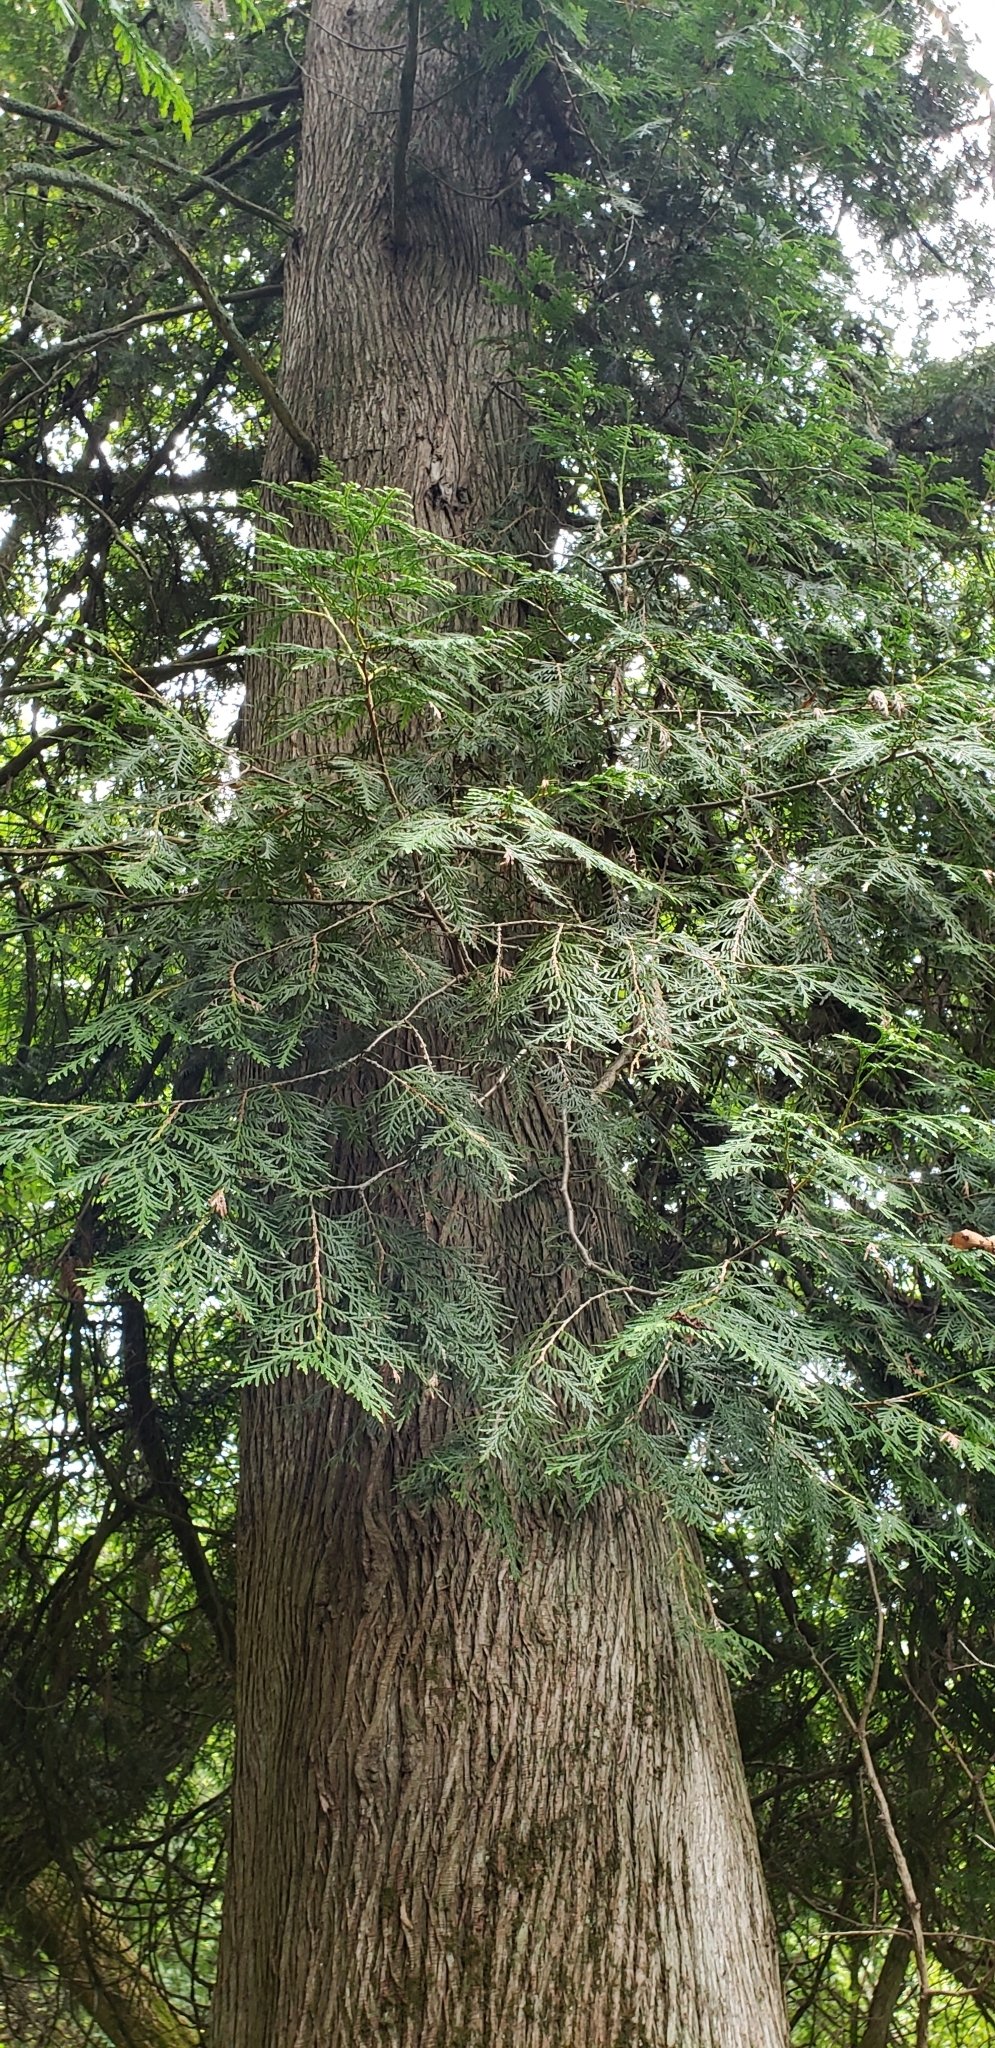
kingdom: Plantae
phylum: Tracheophyta
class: Pinopsida
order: Pinales
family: Cupressaceae
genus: Thuja
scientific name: Thuja occidentalis
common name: Northern white-cedar
